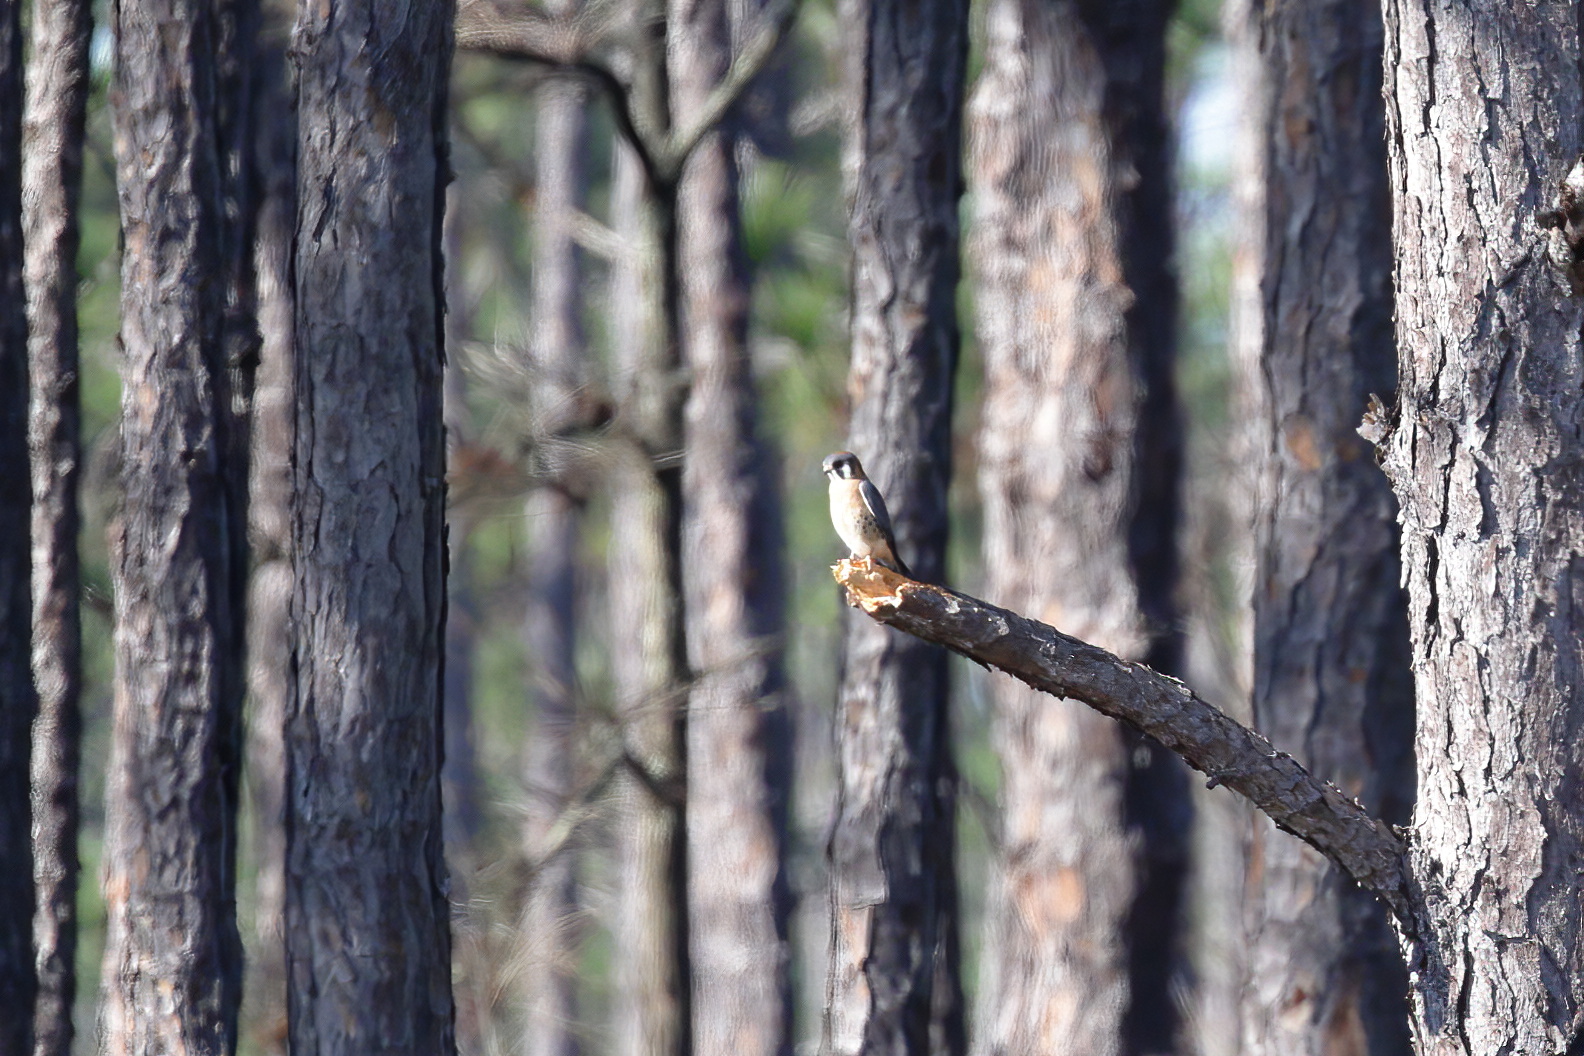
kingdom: Animalia
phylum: Chordata
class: Aves
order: Falconiformes
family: Falconidae
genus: Falco
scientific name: Falco sparverius
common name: American kestrel
